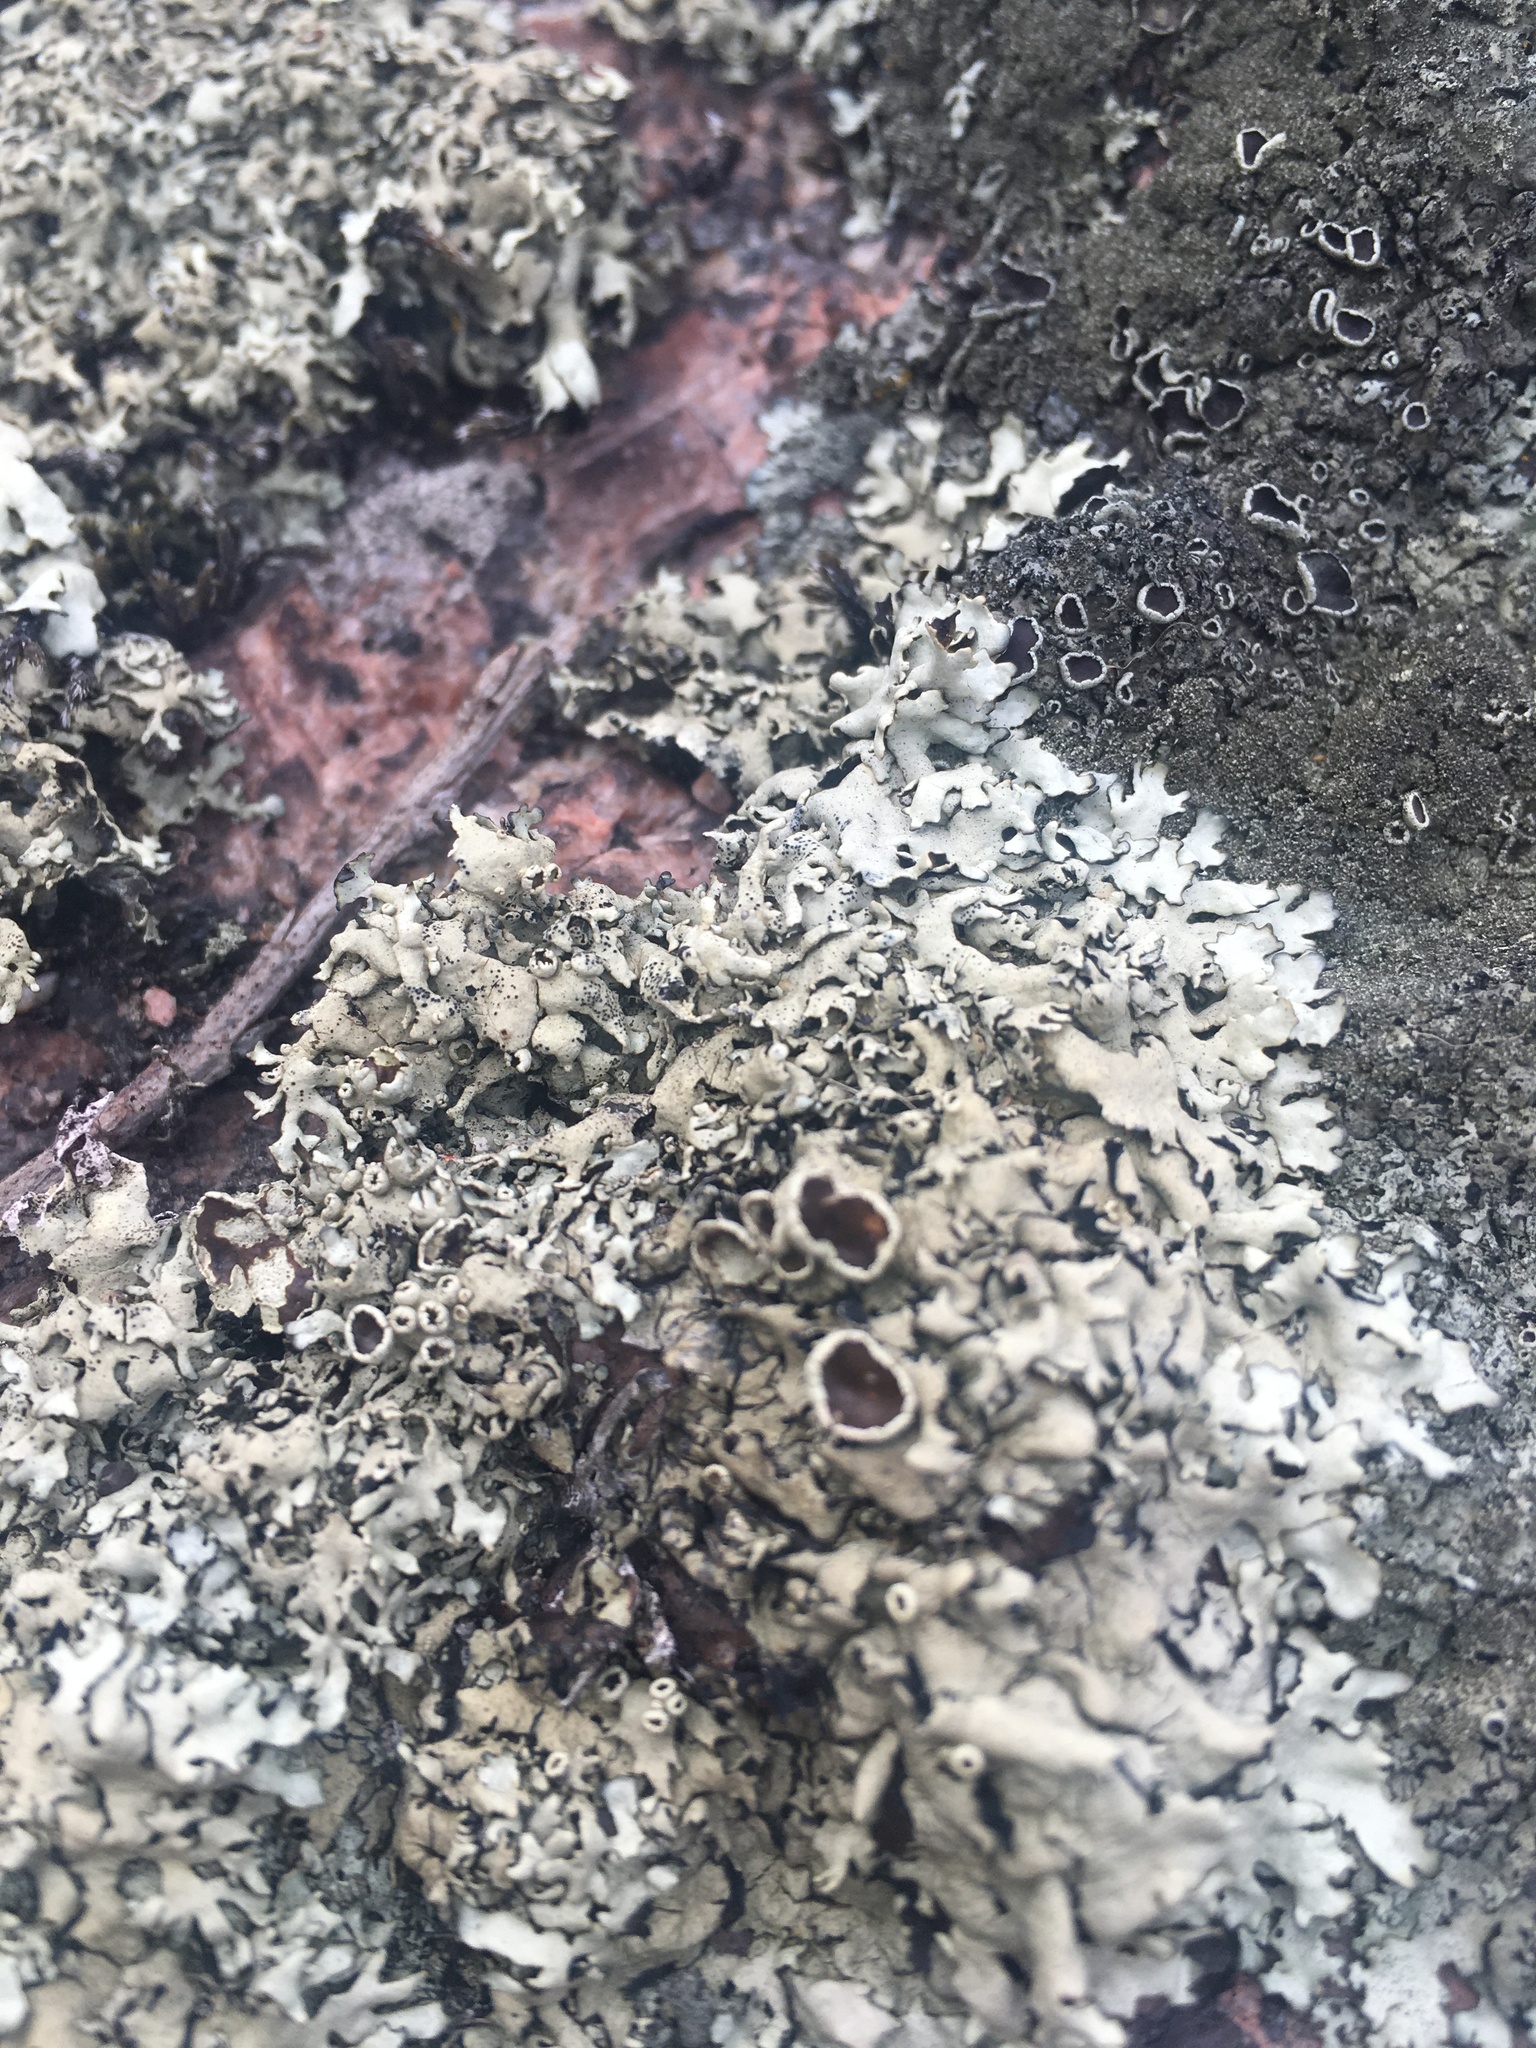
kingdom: Fungi
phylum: Ascomycota
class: Lecanoromycetes
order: Lecanorales
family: Parmeliaceae
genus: Xanthoparmelia
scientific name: Xanthoparmelia stenophylla
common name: Shingled rock shield
